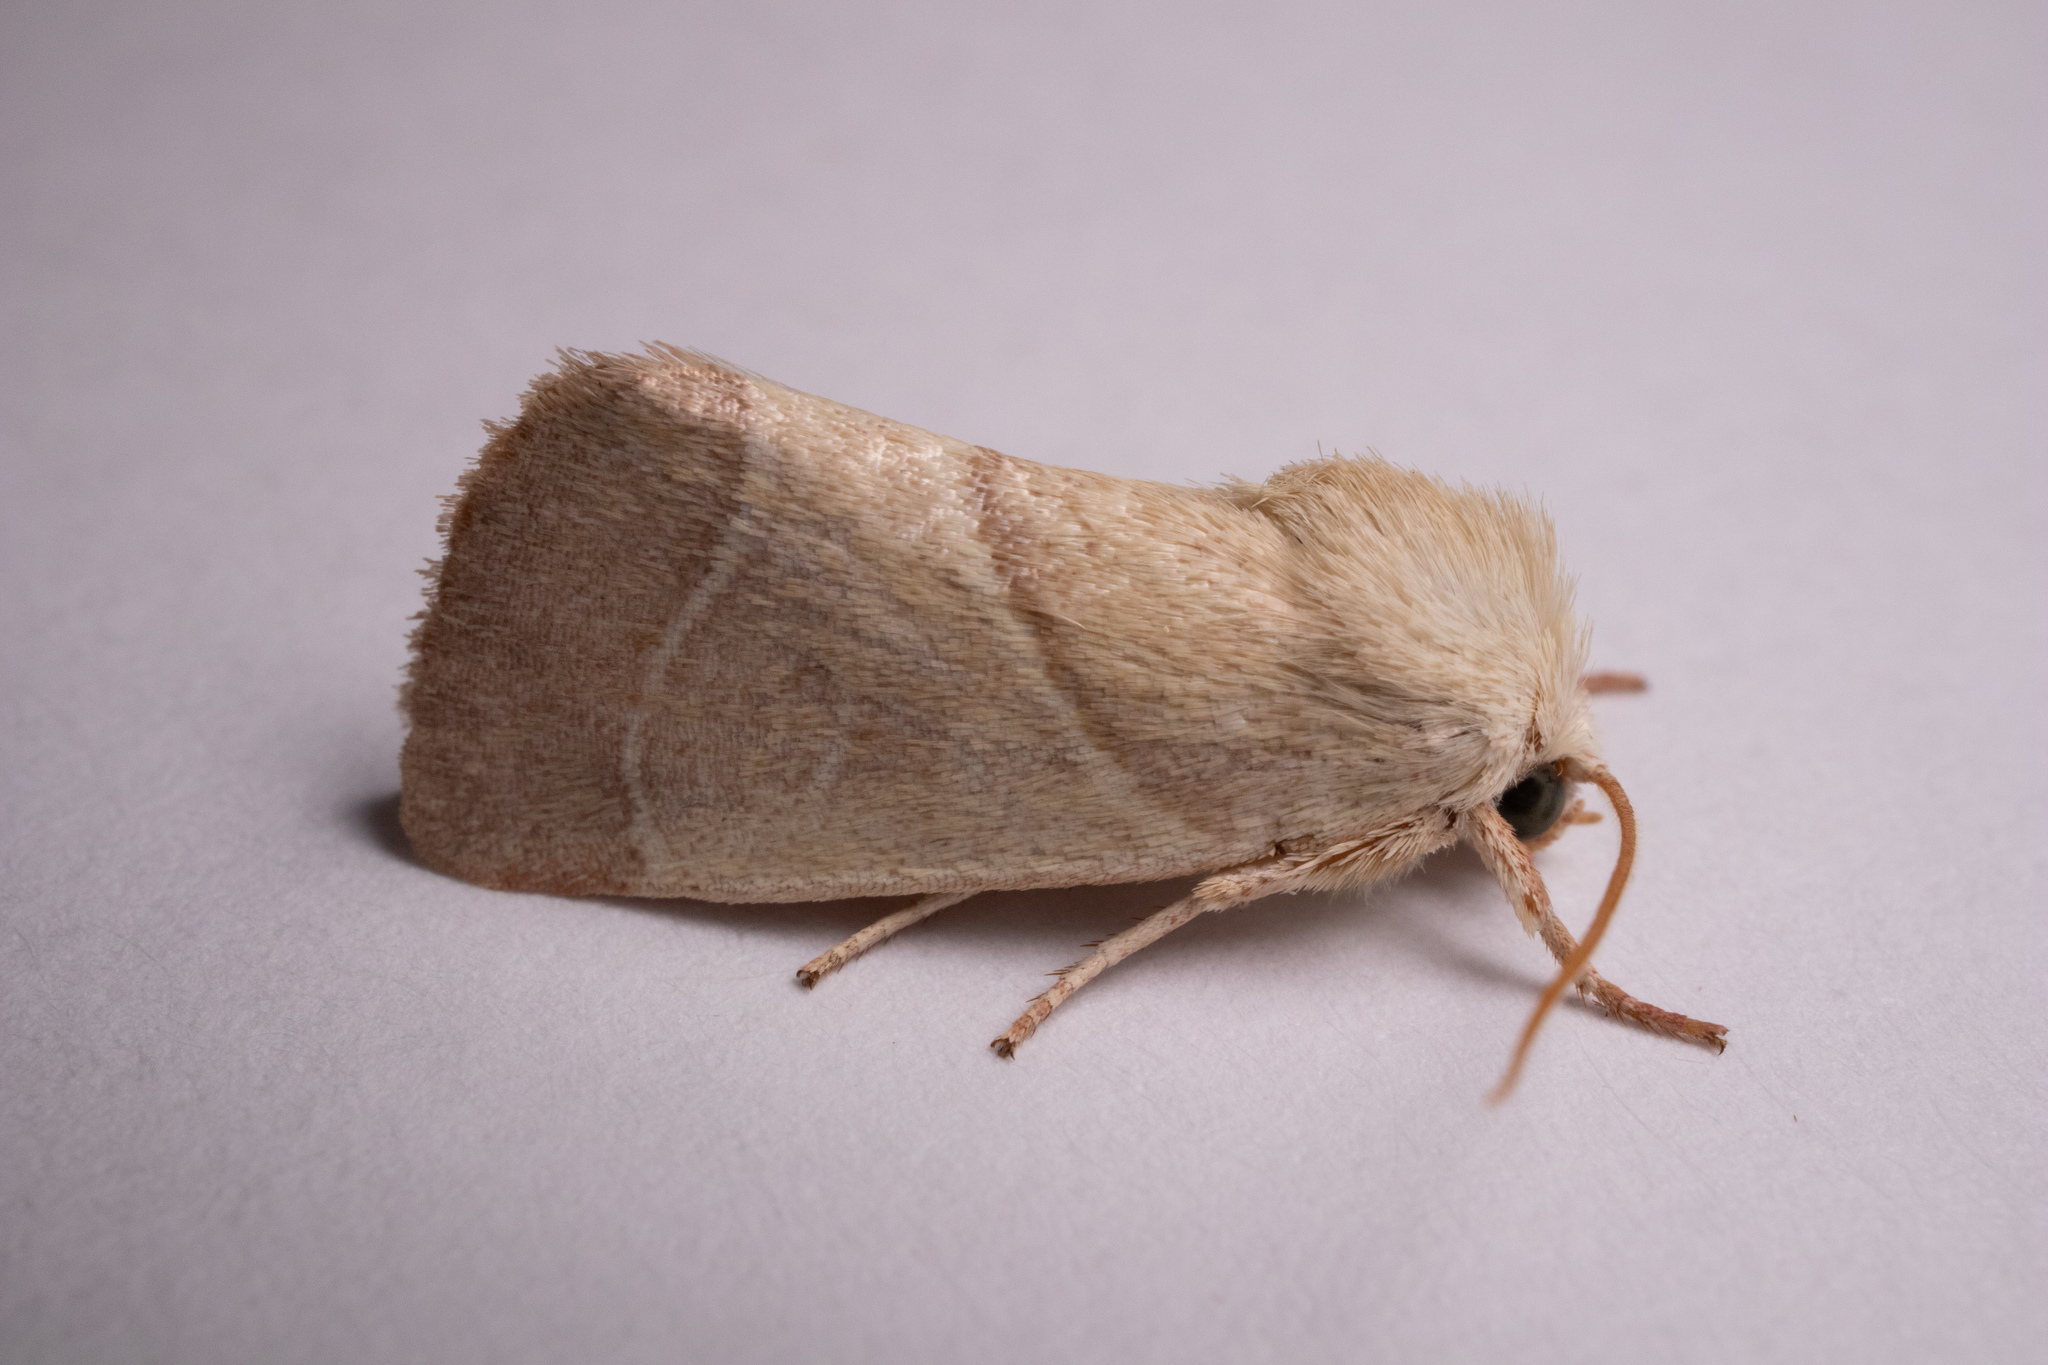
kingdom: Animalia
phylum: Arthropoda
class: Insecta
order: Lepidoptera
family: Noctuidae
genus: Cosmia
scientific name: Cosmia calami
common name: American dun-bar moth
